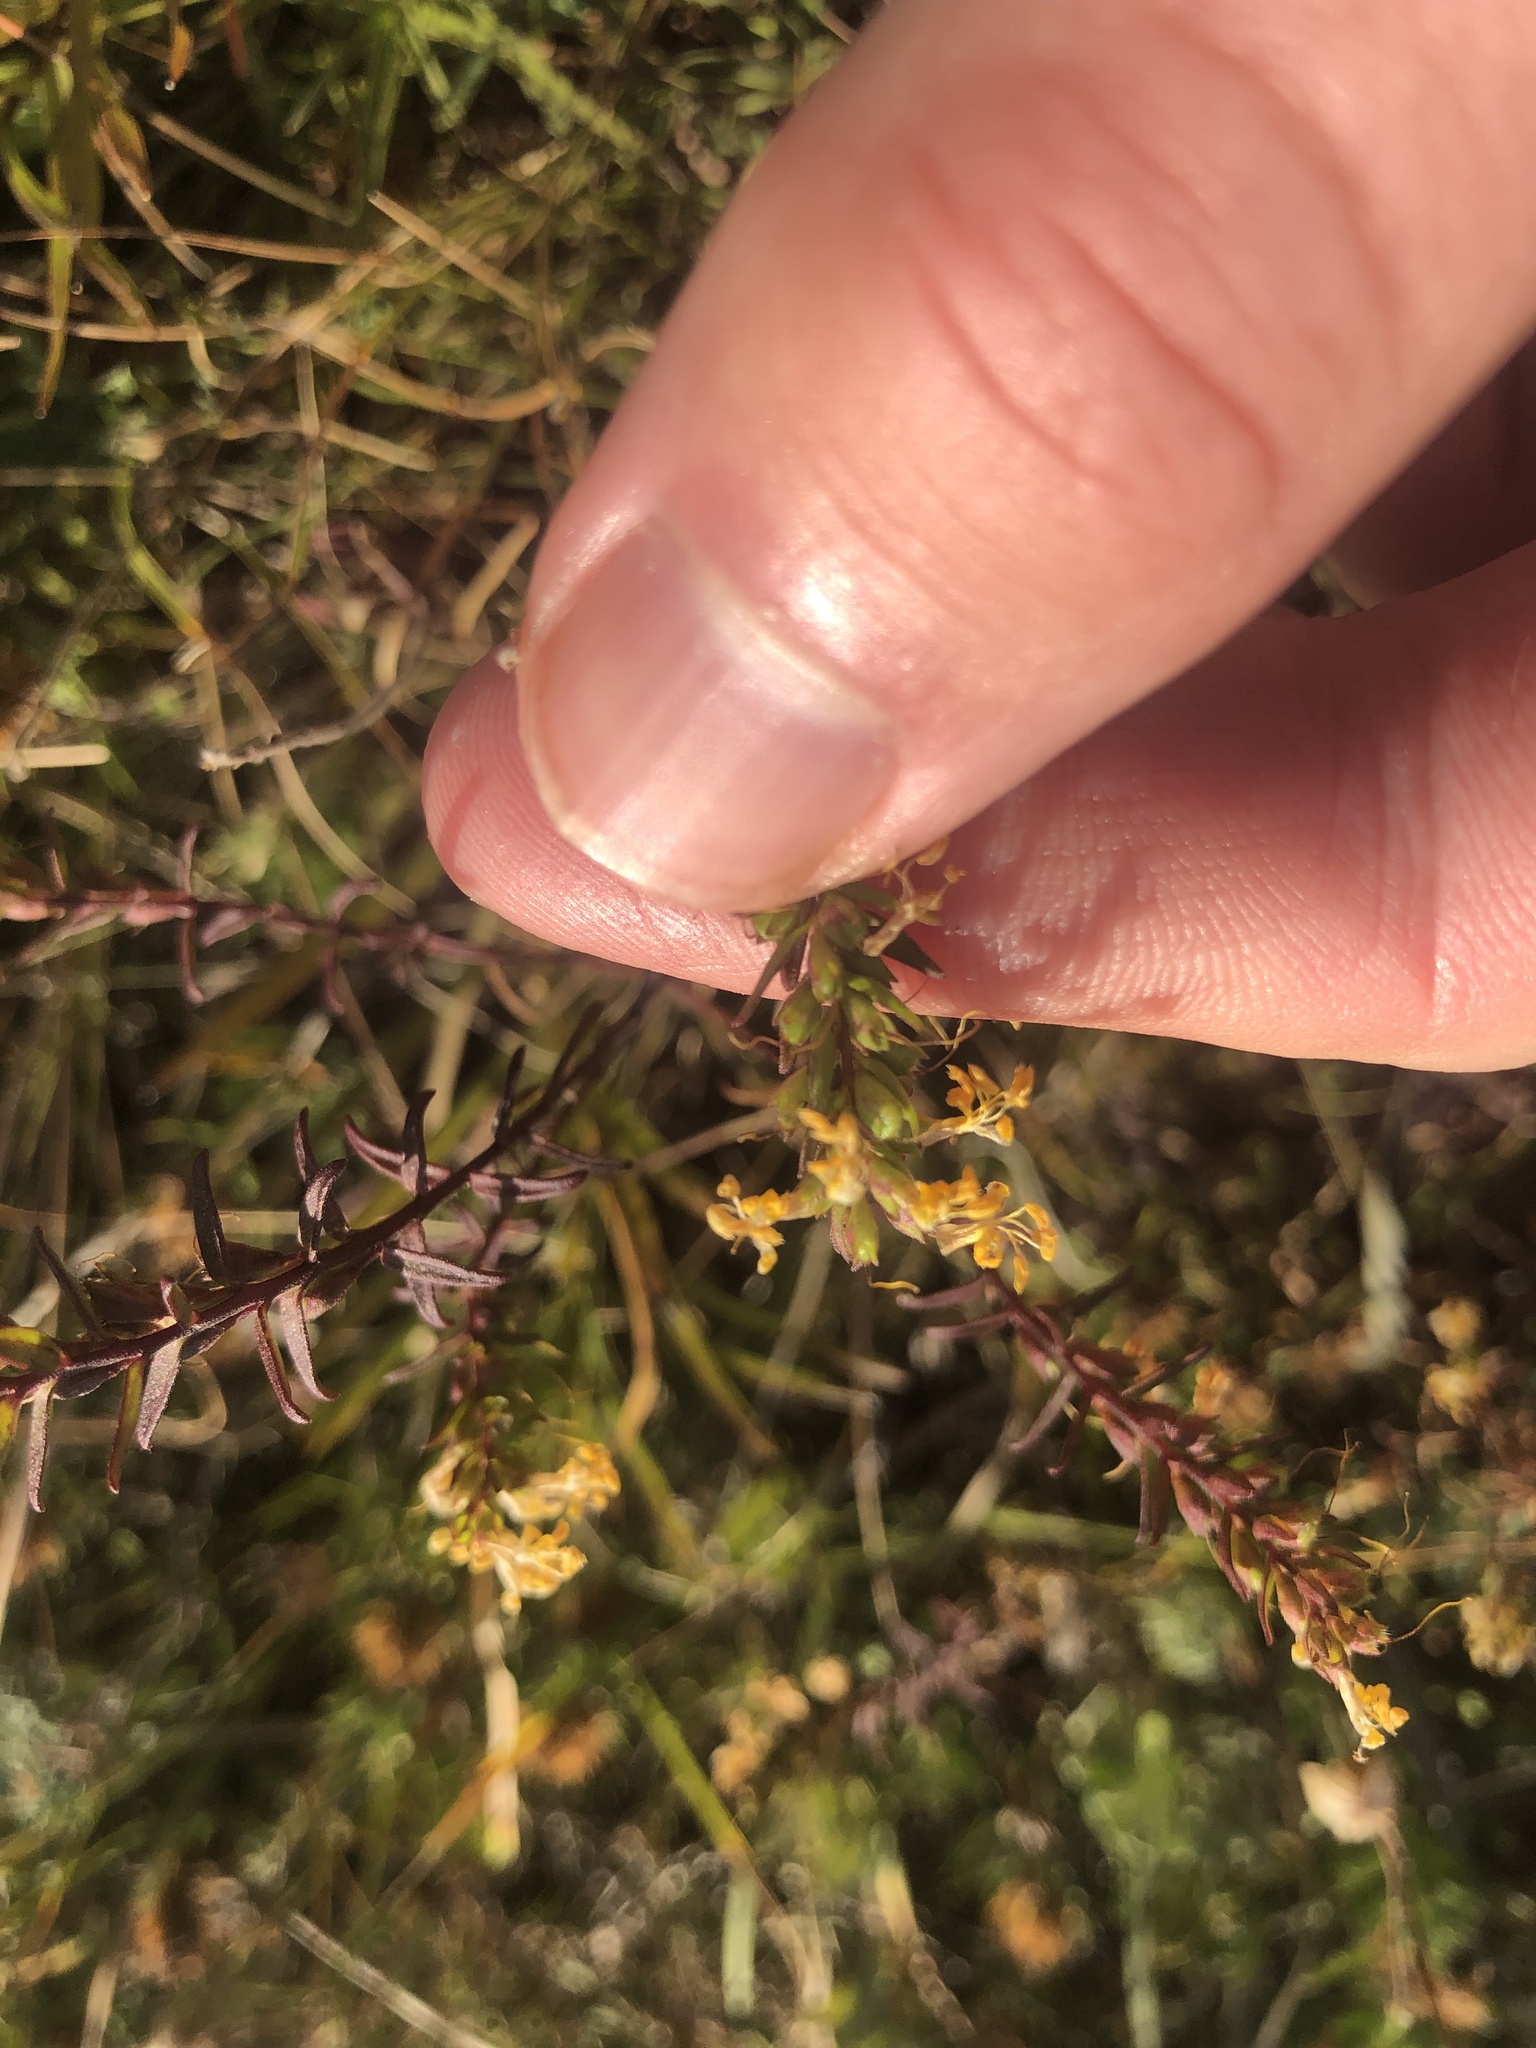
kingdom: Plantae
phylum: Tracheophyta
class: Magnoliopsida
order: Lamiales
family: Orobanchaceae
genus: Odontites
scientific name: Odontites luteus
